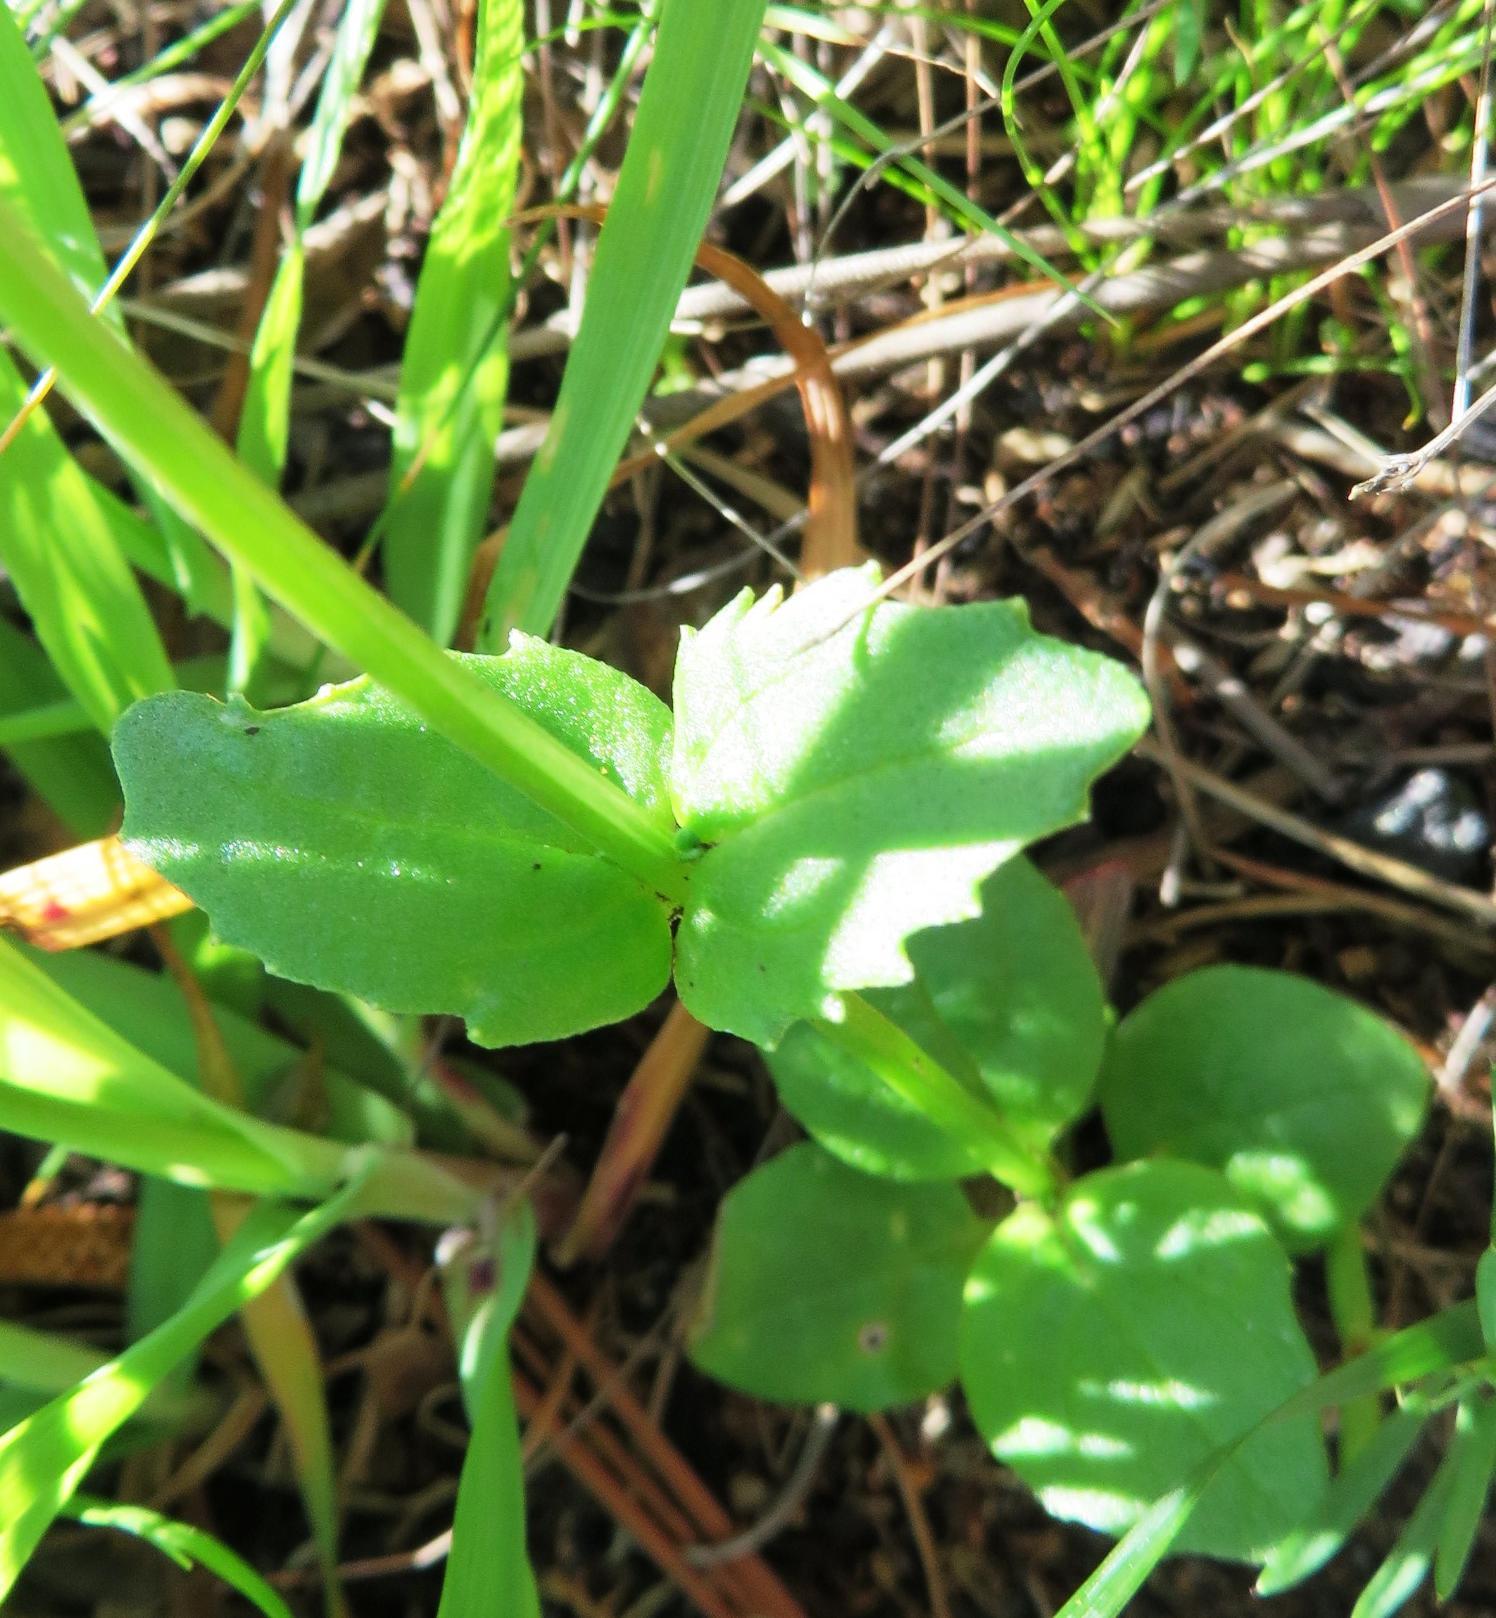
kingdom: Plantae
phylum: Tracheophyta
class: Magnoliopsida
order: Lamiales
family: Scrophulariaceae
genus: Nemesia
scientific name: Nemesia barbata
